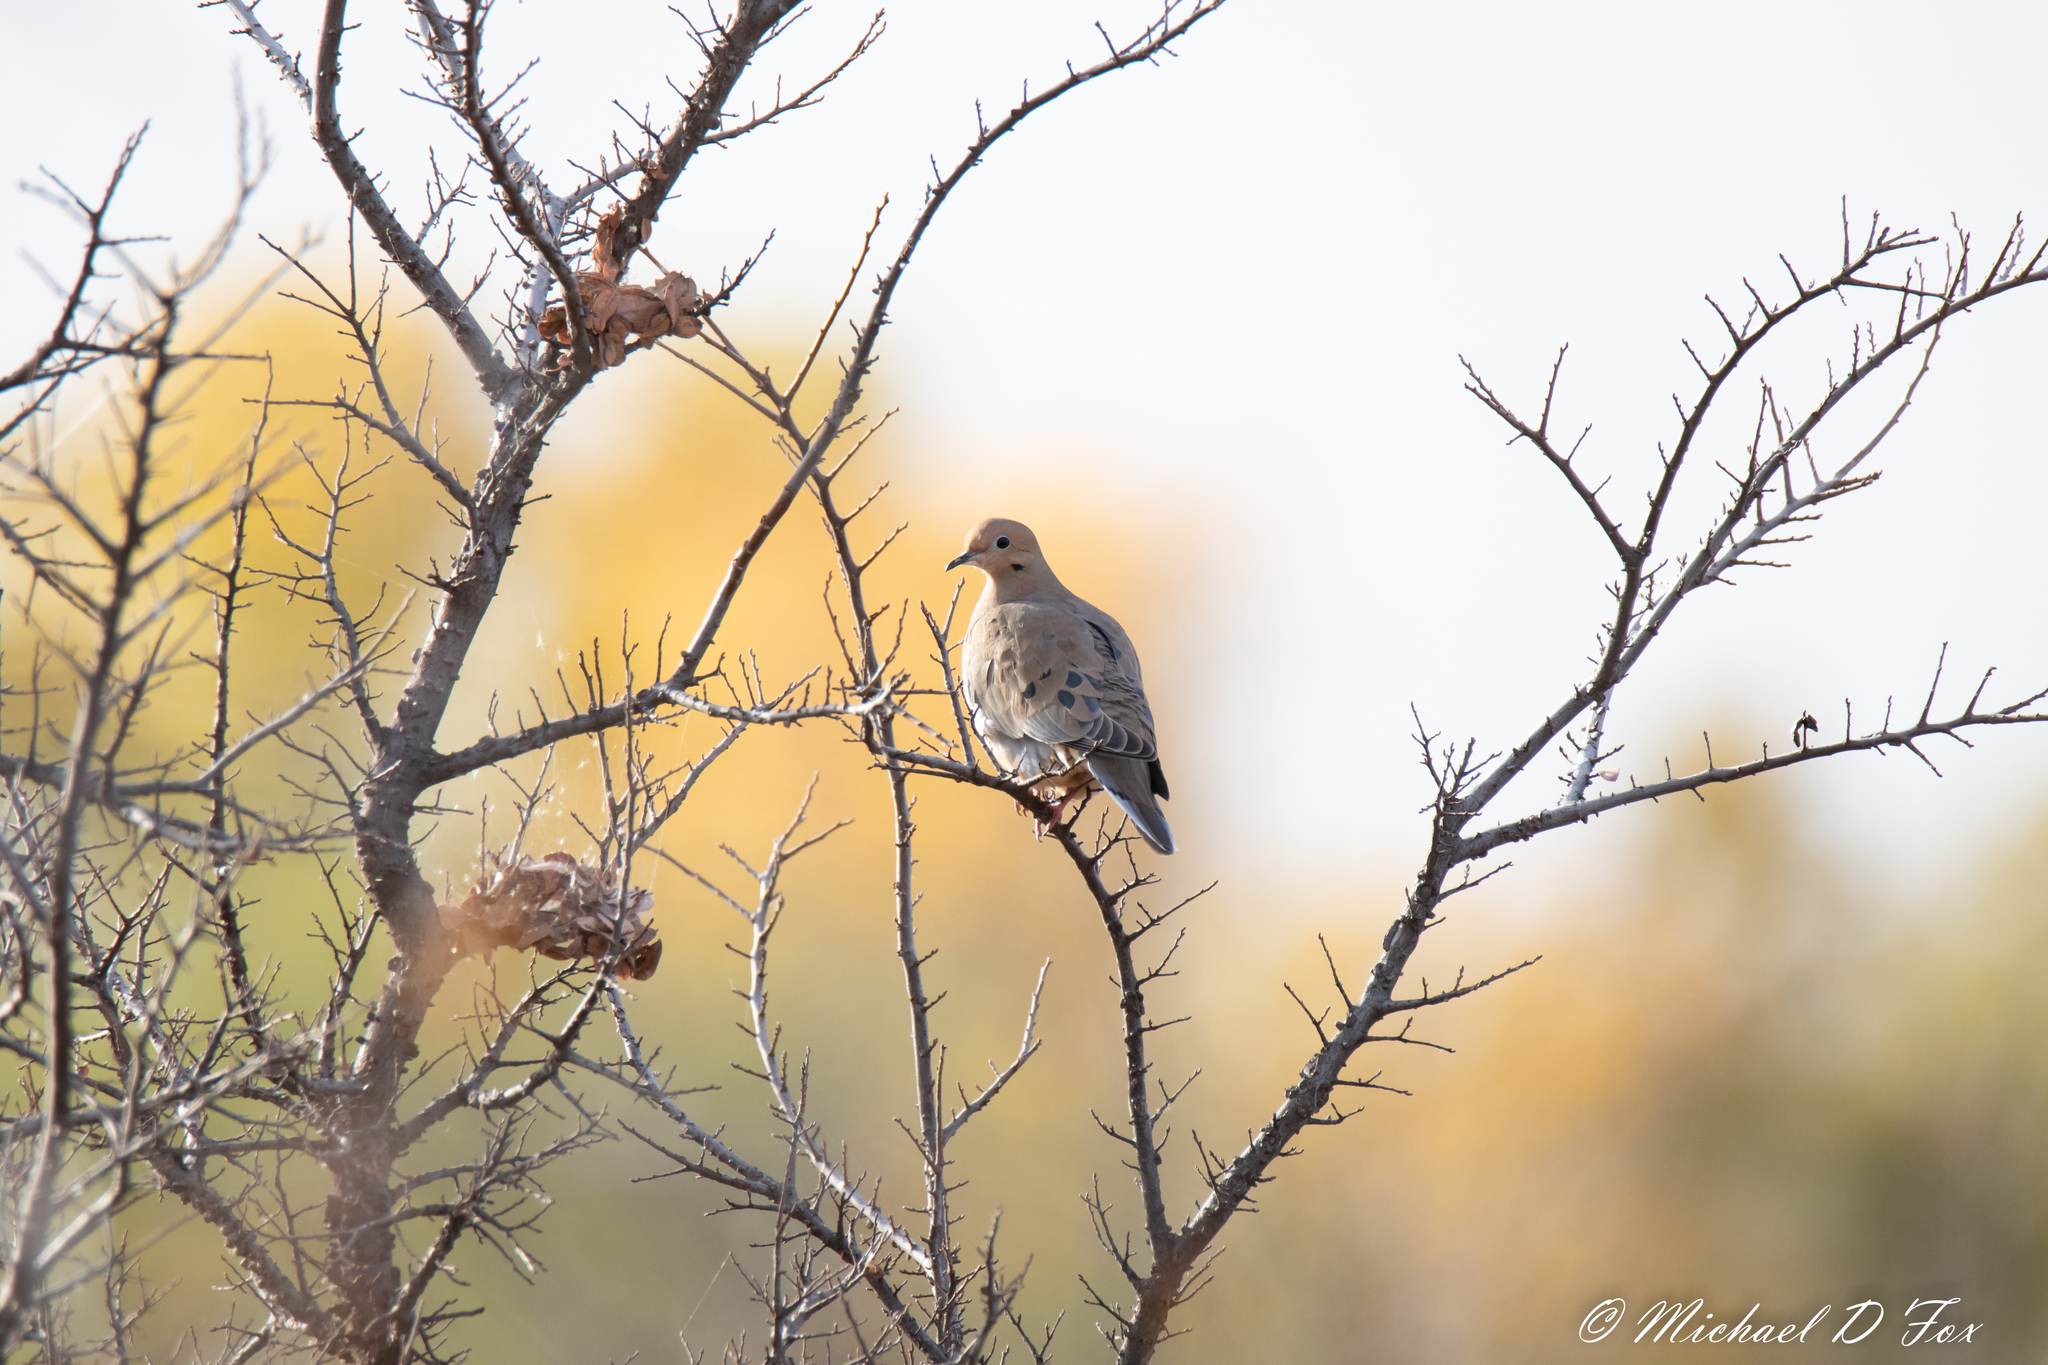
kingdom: Animalia
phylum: Chordata
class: Aves
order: Columbiformes
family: Columbidae
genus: Zenaida
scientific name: Zenaida macroura
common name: Mourning dove
